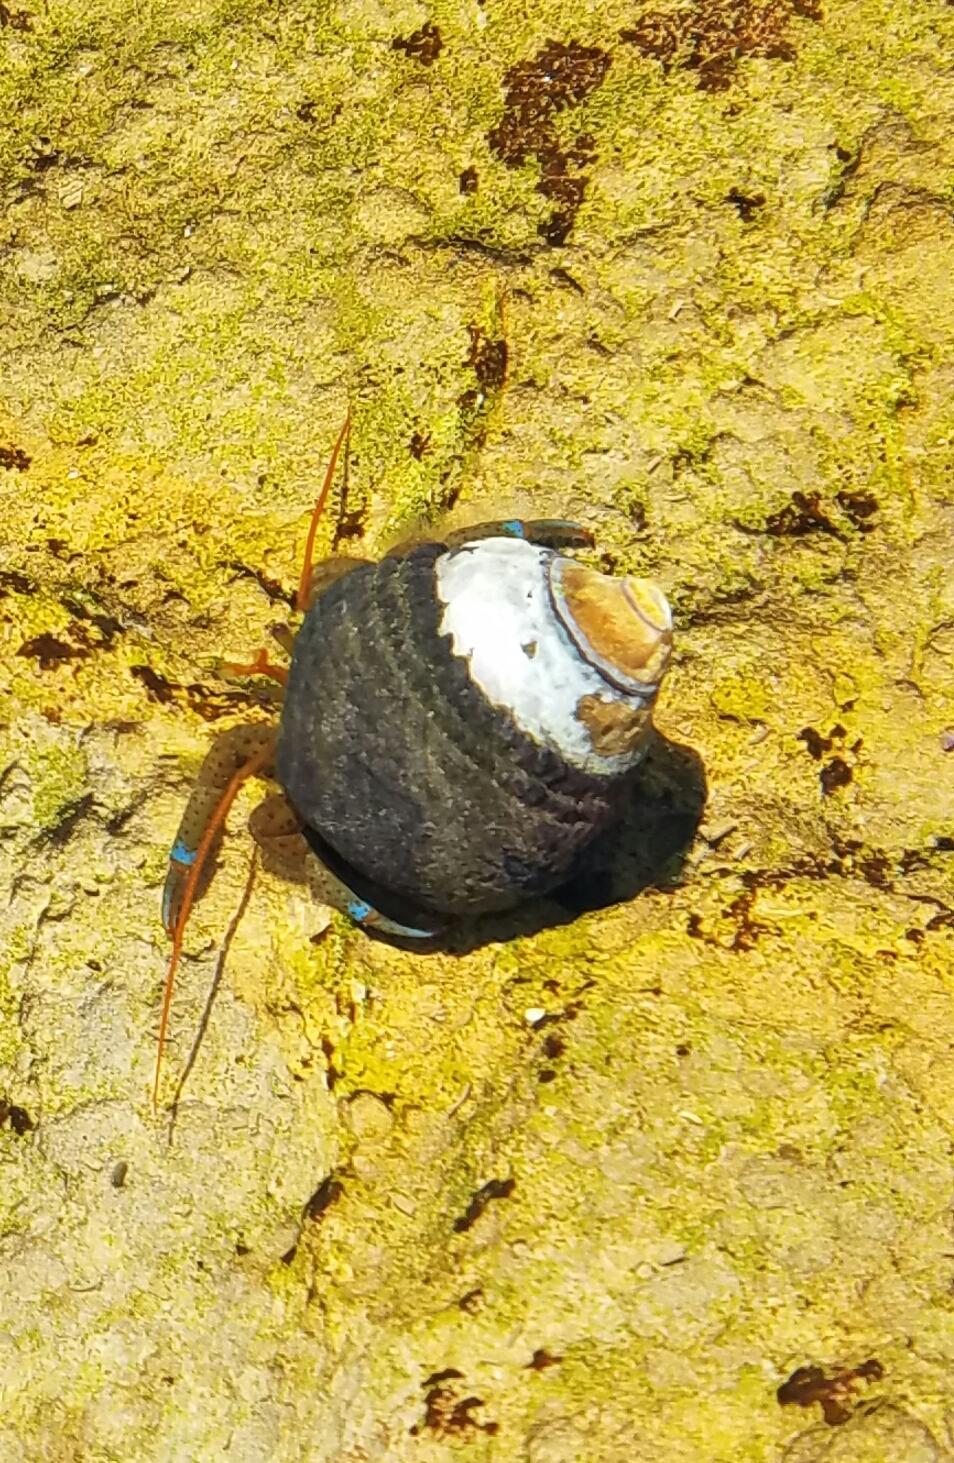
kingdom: Animalia
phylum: Arthropoda
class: Malacostraca
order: Decapoda
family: Paguridae
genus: Pagurus
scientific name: Pagurus samuelis
